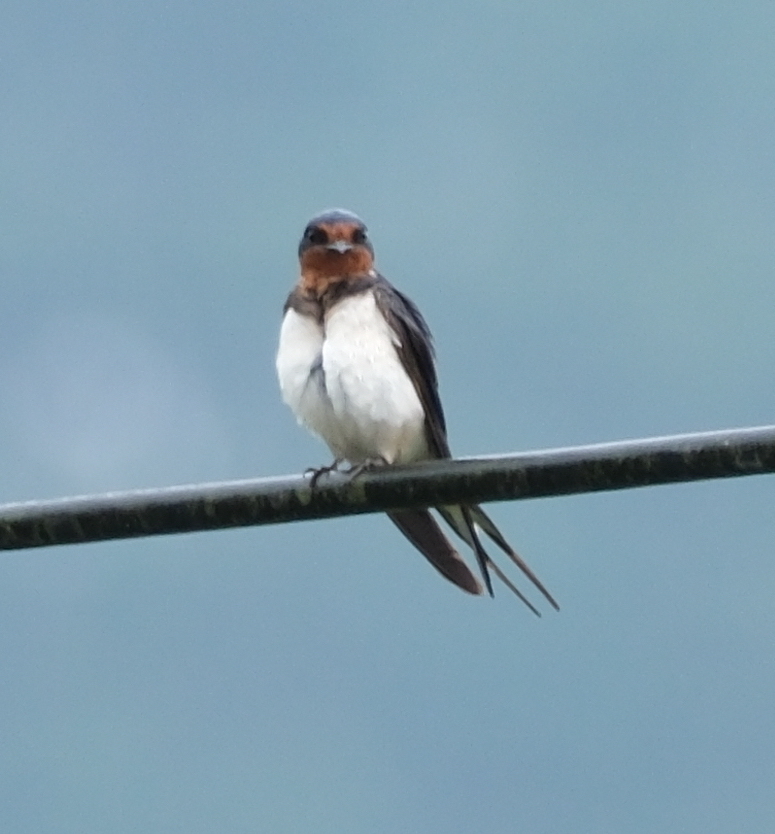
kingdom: Animalia
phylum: Chordata
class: Aves
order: Passeriformes
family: Hirundinidae
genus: Hirundo
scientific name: Hirundo rustica
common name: Barn swallow
